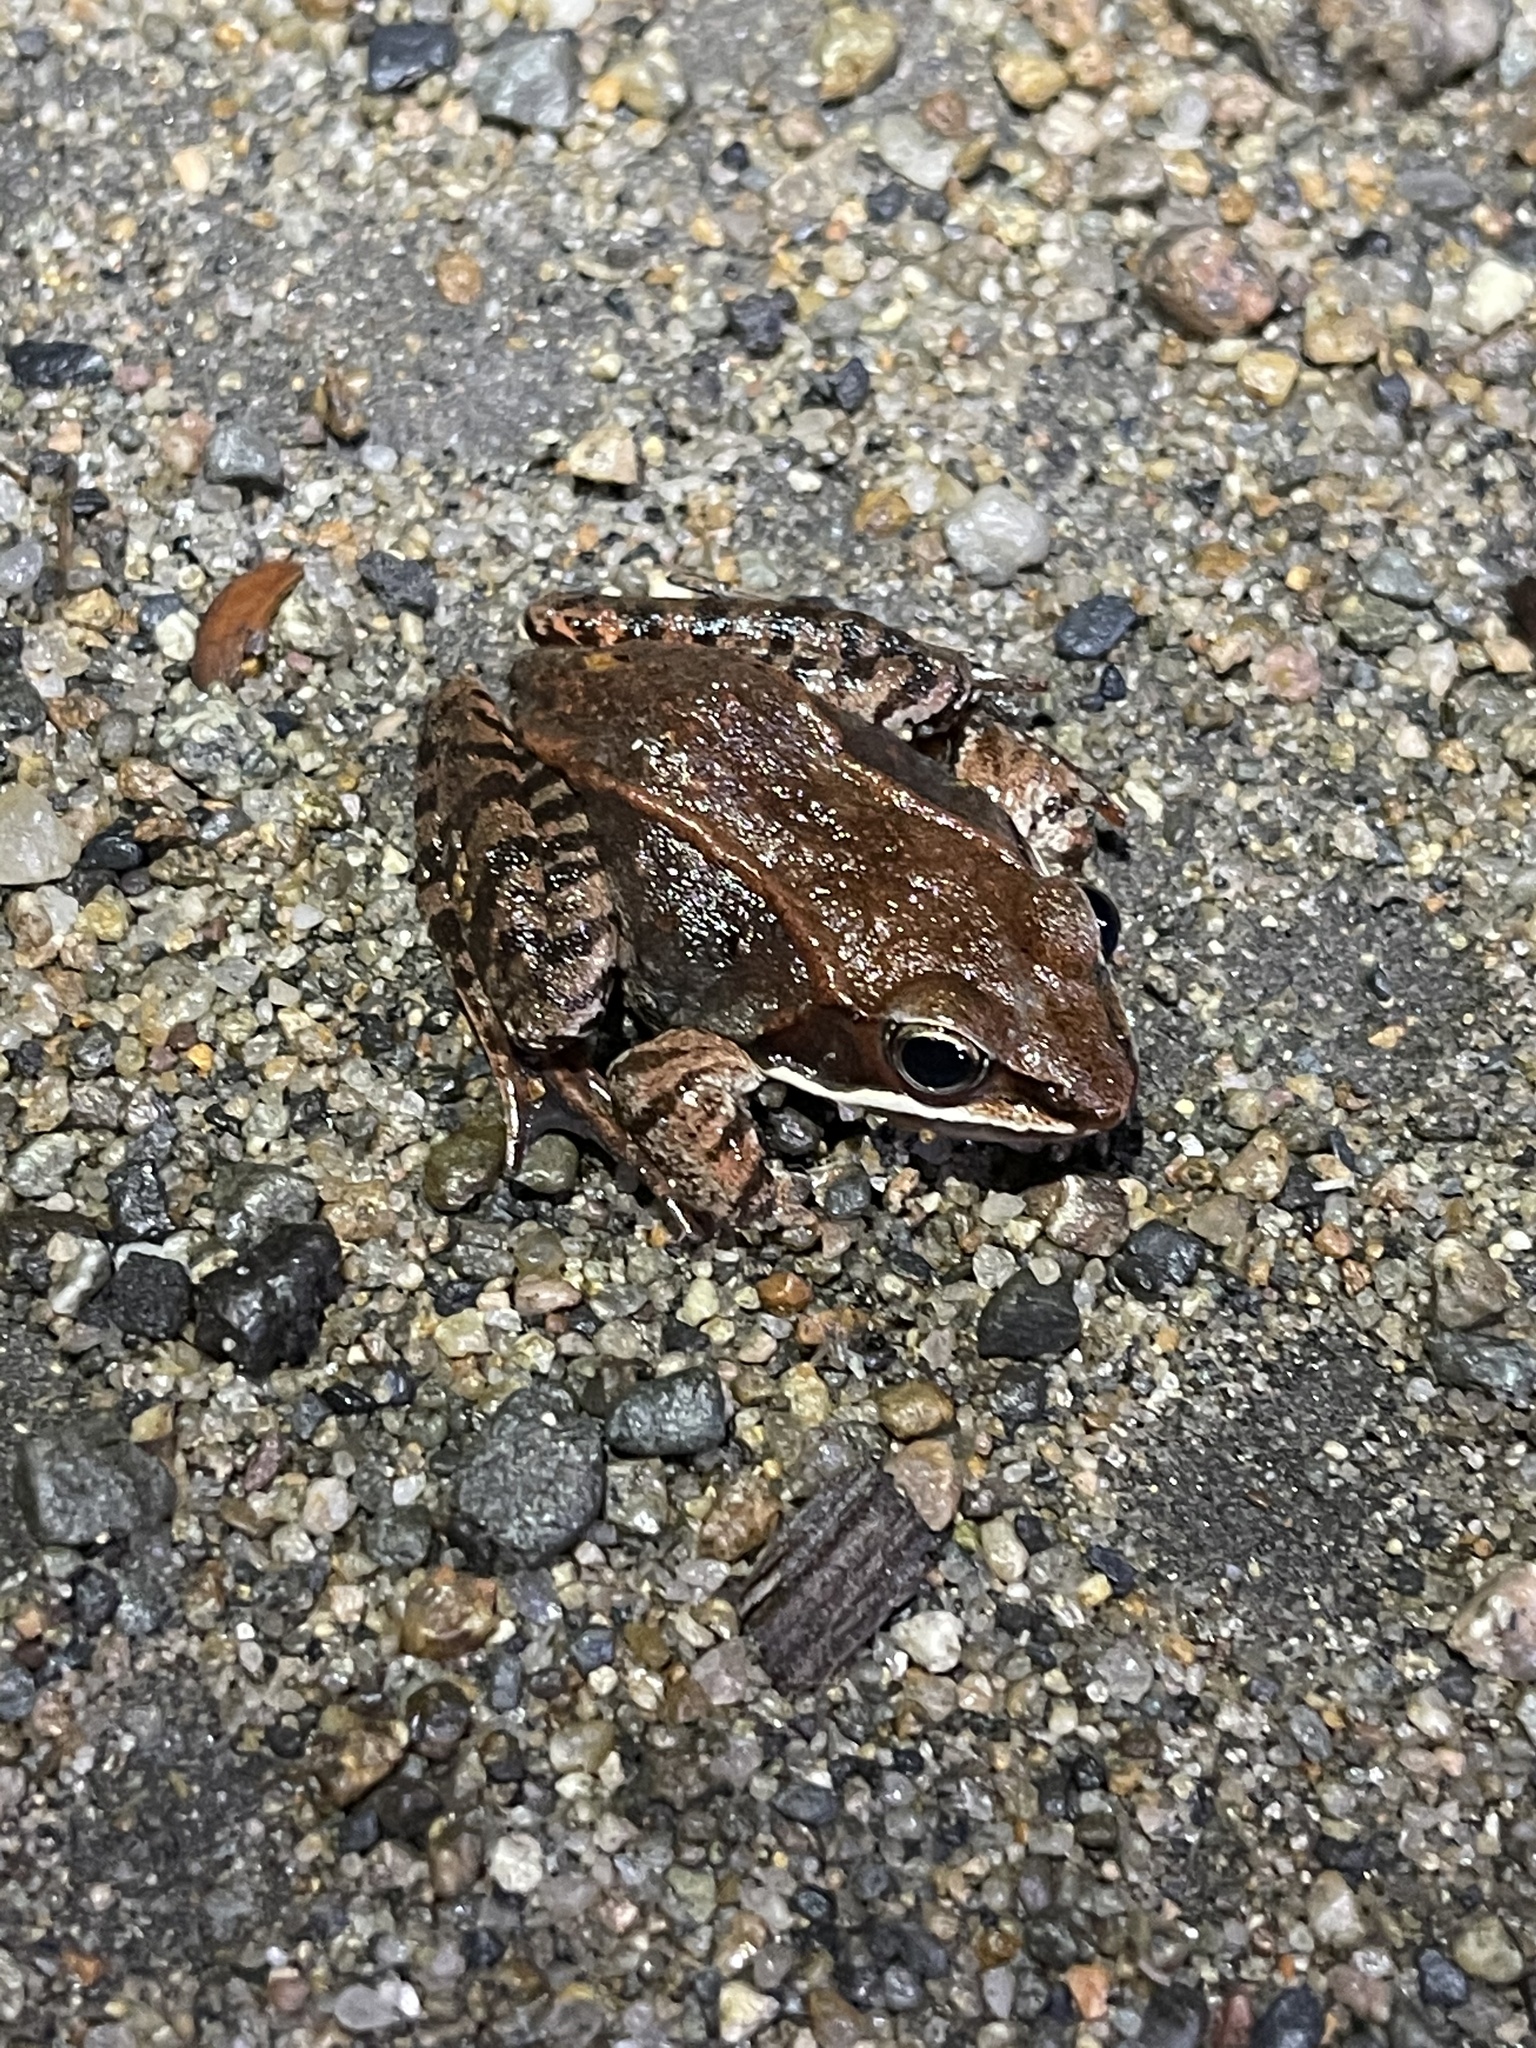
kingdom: Animalia
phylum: Chordata
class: Amphibia
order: Anura
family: Ranidae
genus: Lithobates
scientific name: Lithobates sylvaticus
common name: Wood frog
